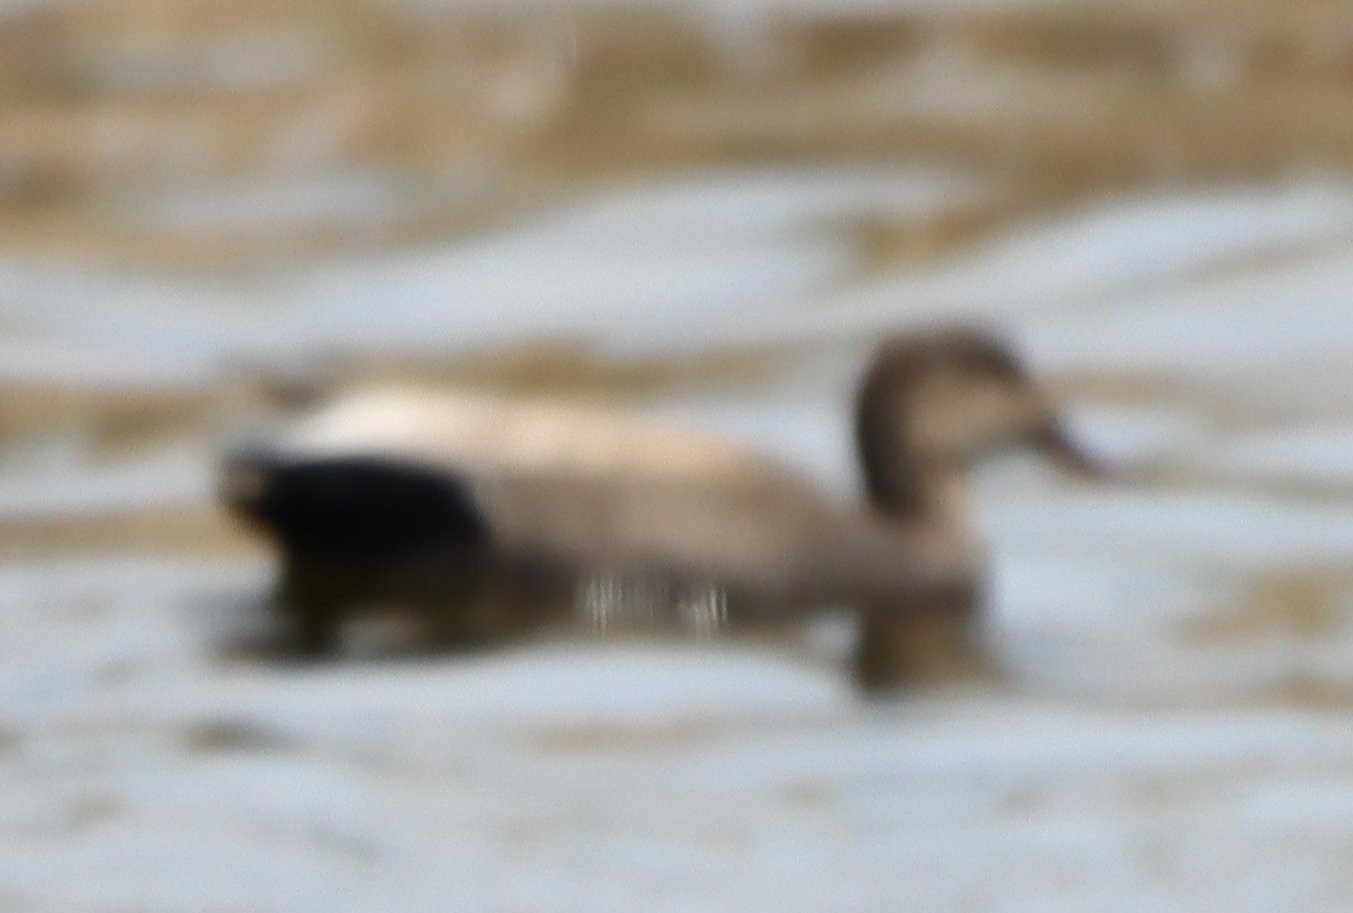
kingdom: Animalia
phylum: Chordata
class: Aves
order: Anseriformes
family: Anatidae
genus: Mareca
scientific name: Mareca strepera
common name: Gadwall
